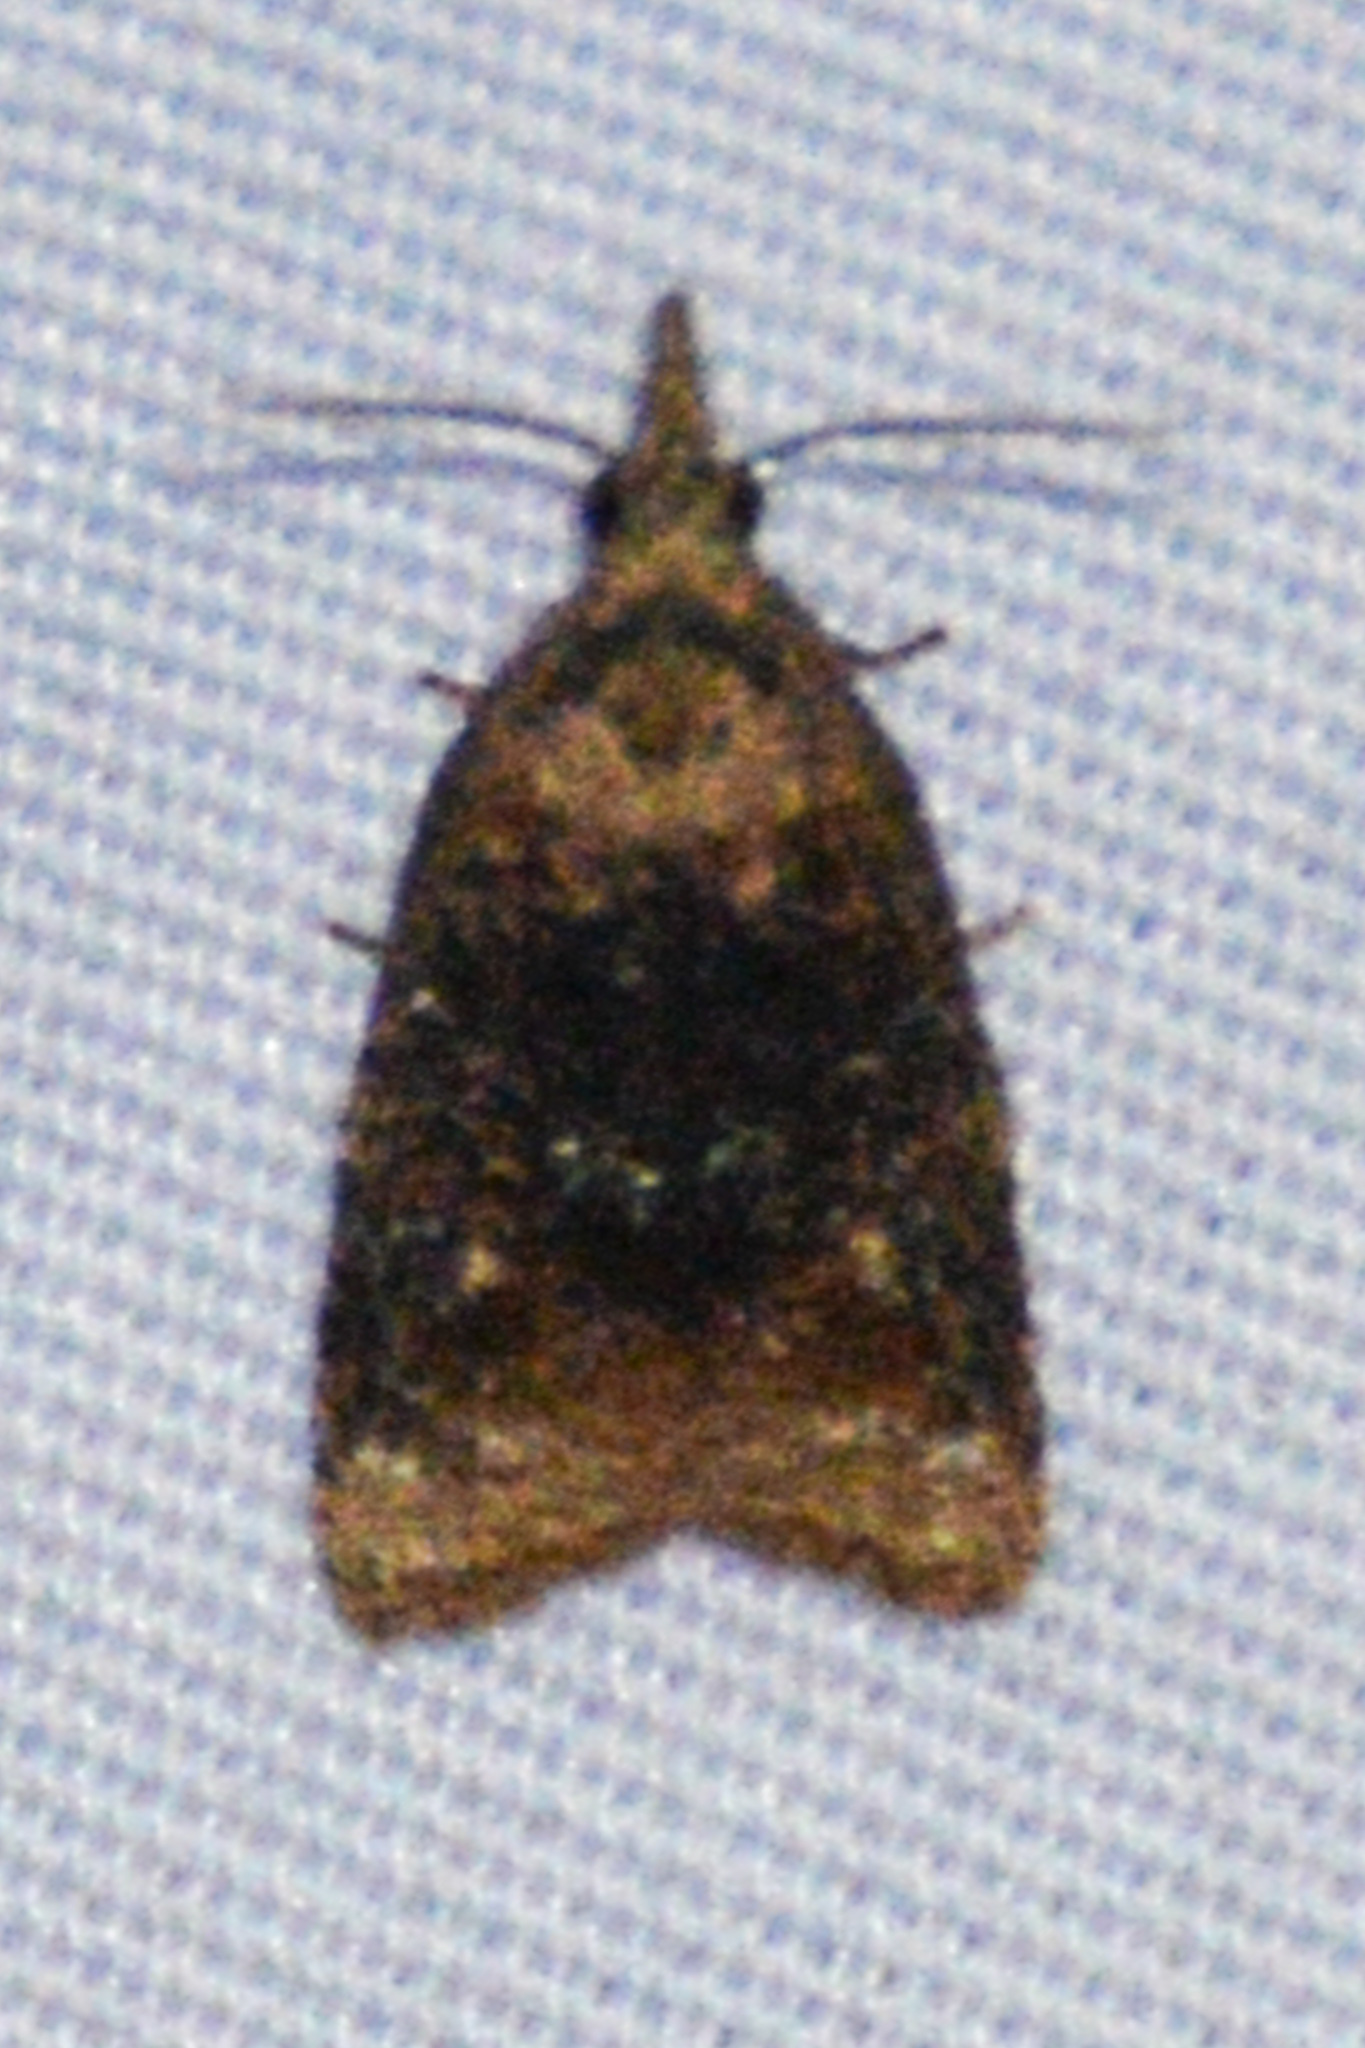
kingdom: Animalia
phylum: Arthropoda
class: Insecta
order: Lepidoptera
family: Tortricidae
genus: Platynota
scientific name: Platynota flavedana
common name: Black-shaded platynota moth
